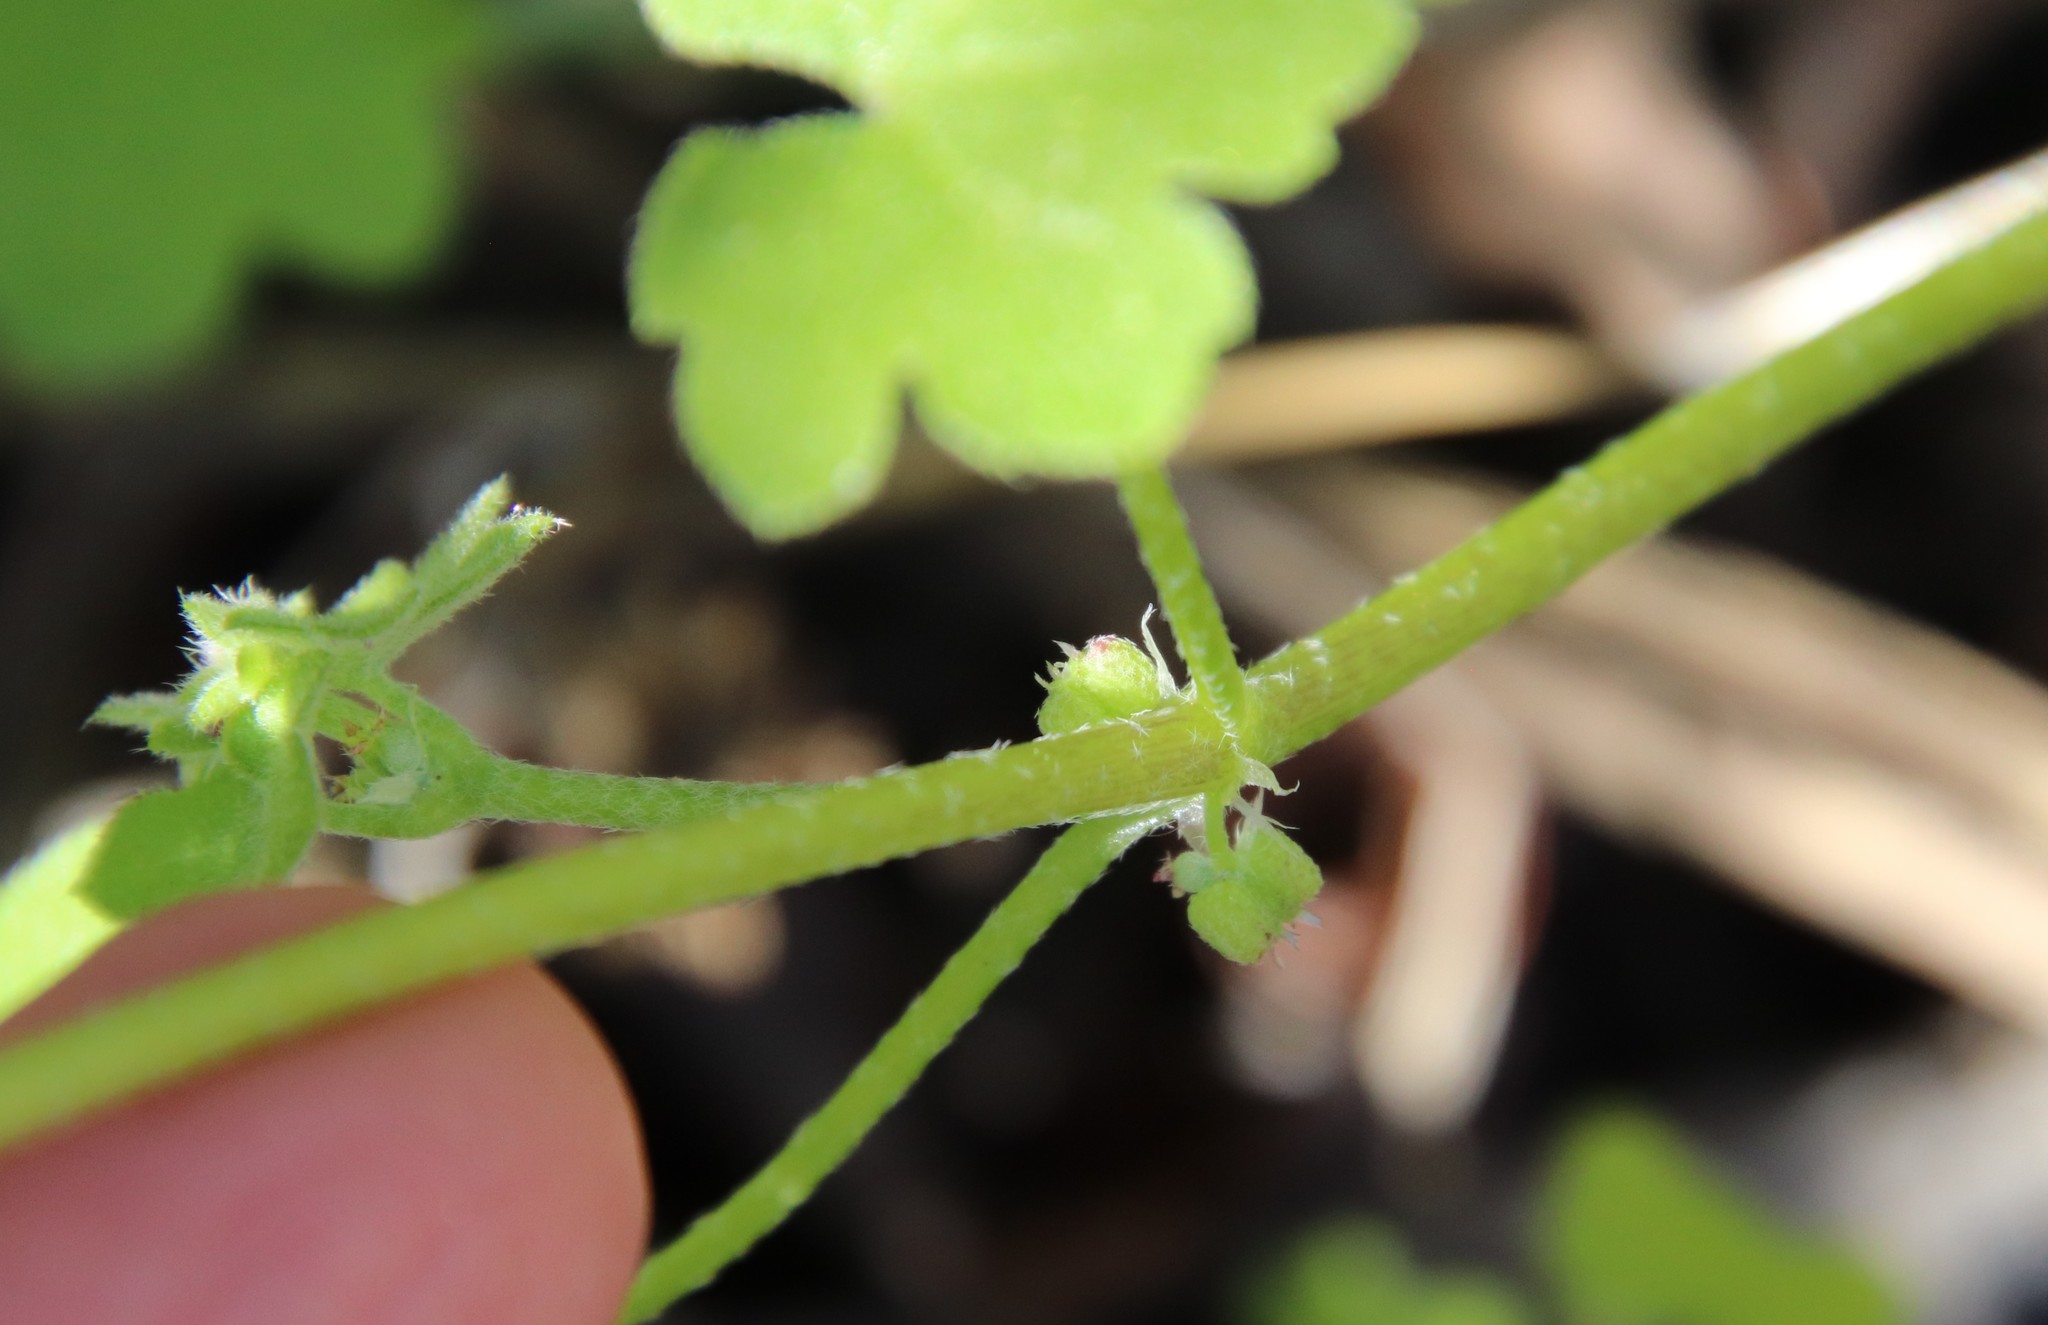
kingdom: Plantae
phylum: Tracheophyta
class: Magnoliopsida
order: Apiales
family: Apiaceae
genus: Bowlesia
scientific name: Bowlesia incana
